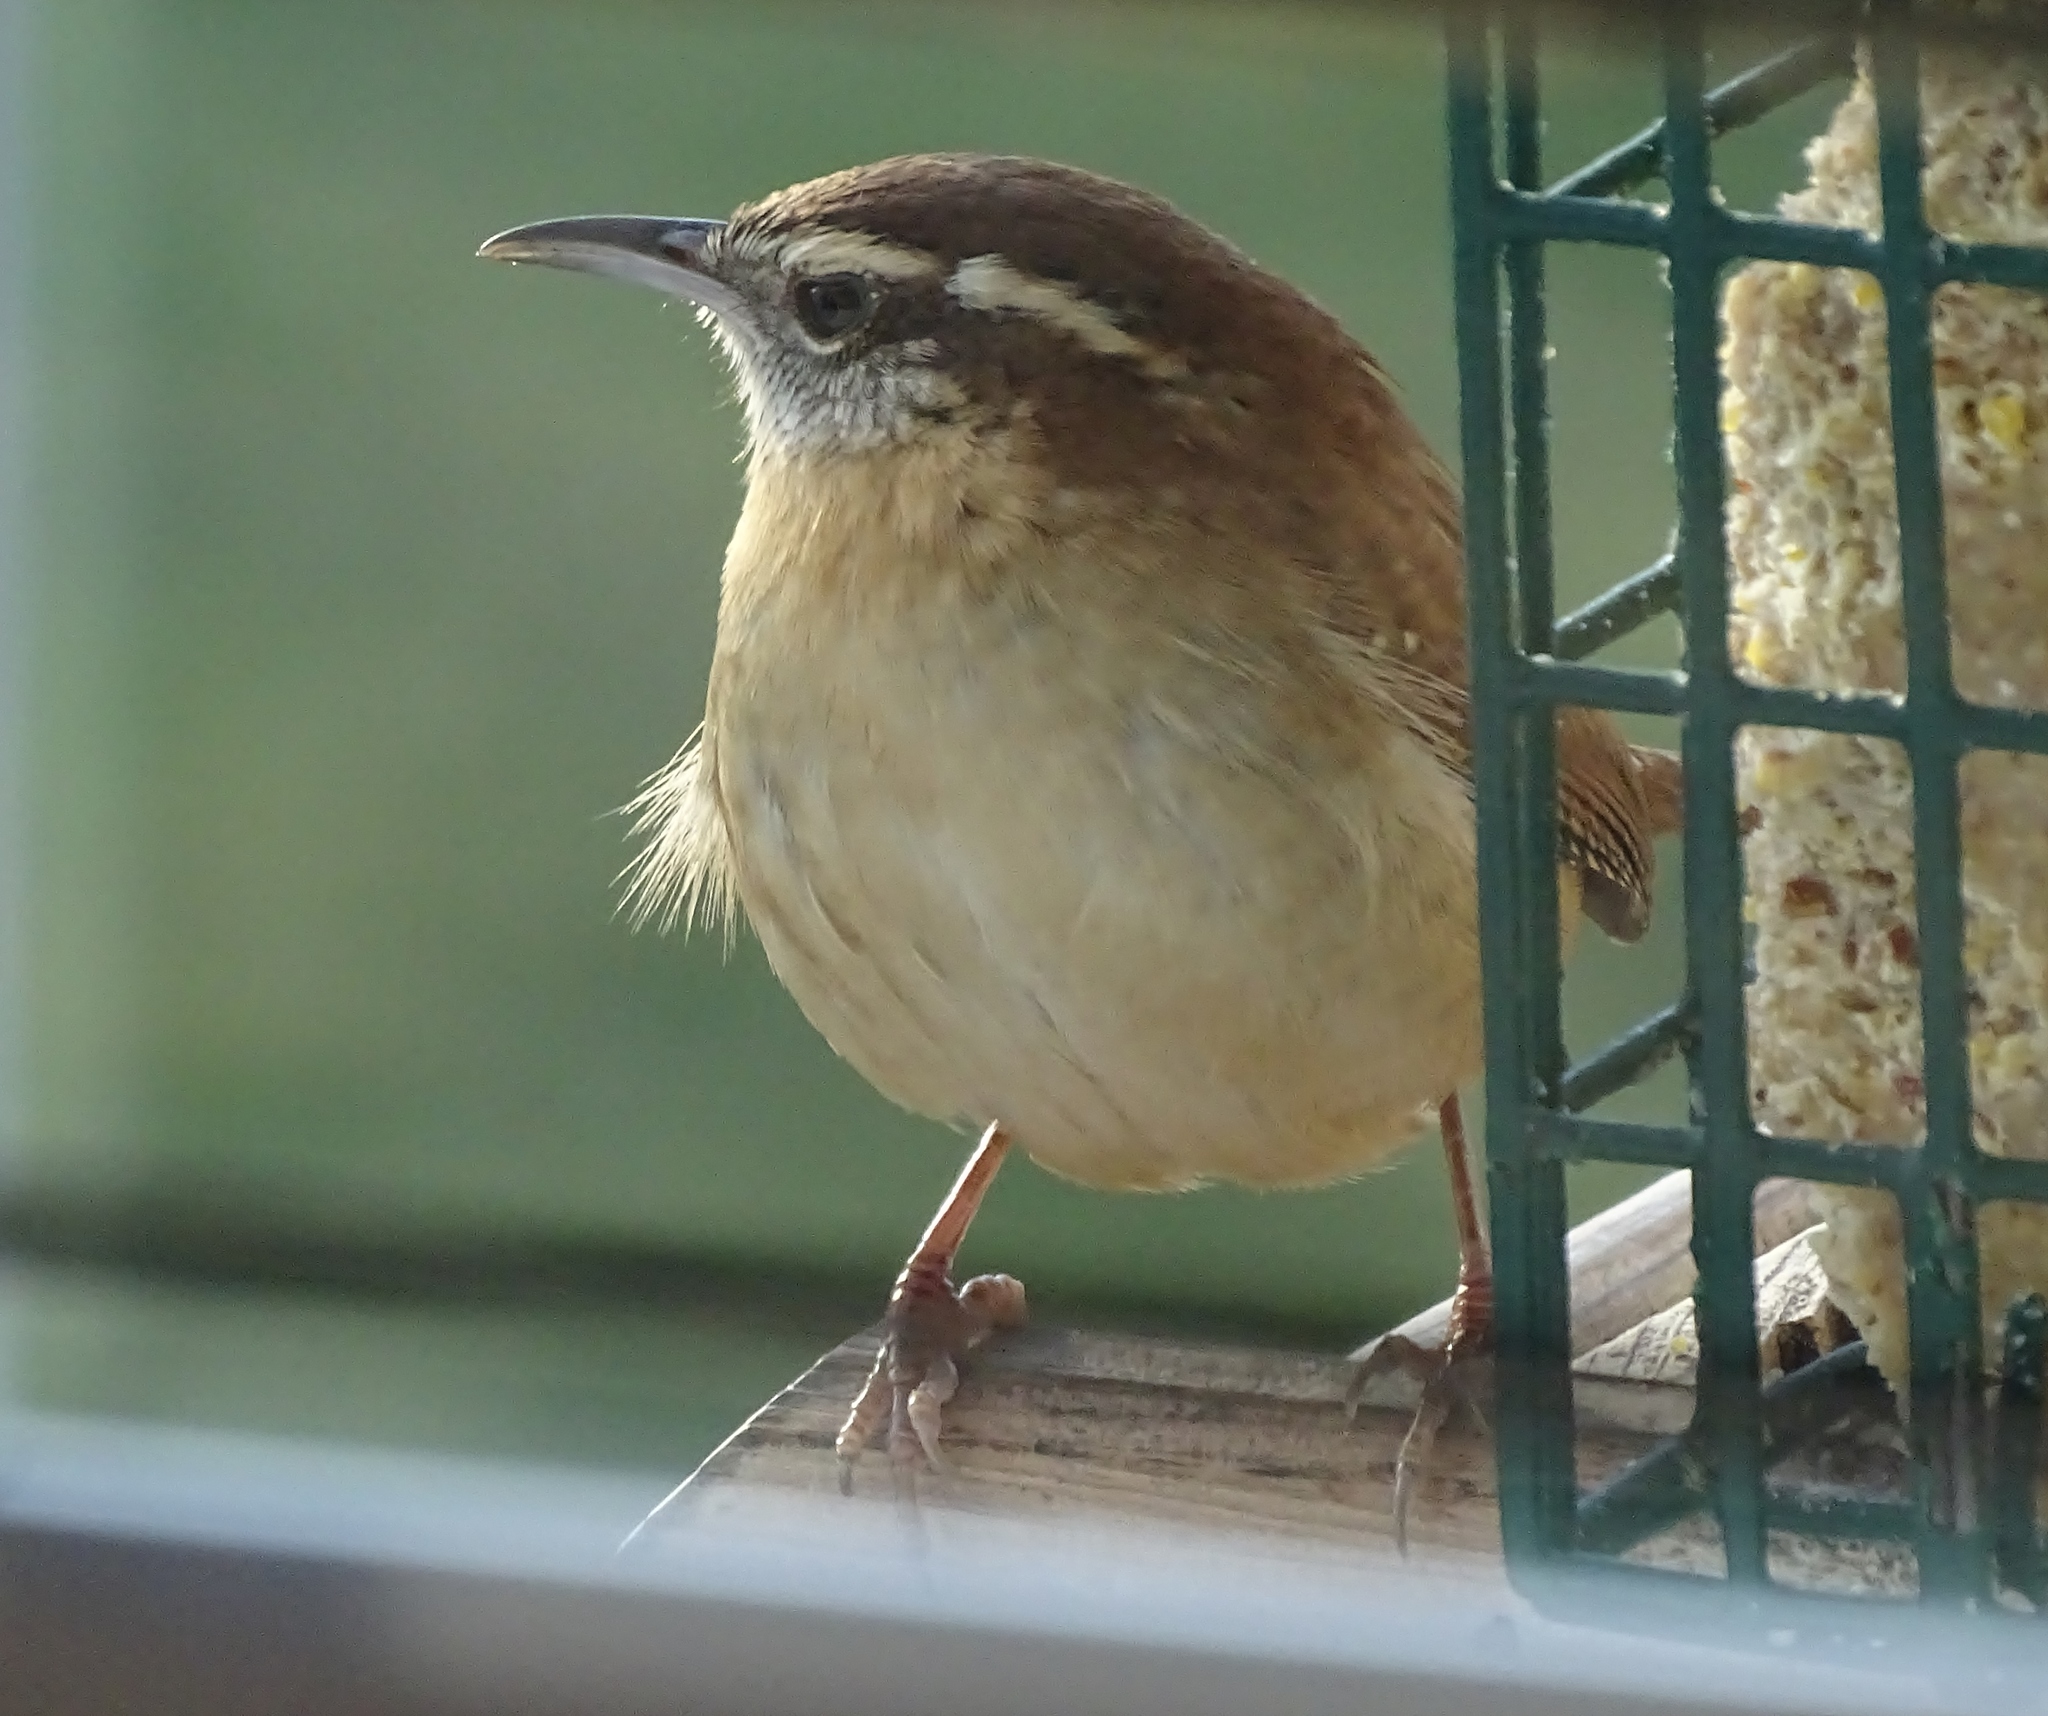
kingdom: Animalia
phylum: Chordata
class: Aves
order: Passeriformes
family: Troglodytidae
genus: Thryothorus
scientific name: Thryothorus ludovicianus
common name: Carolina wren
